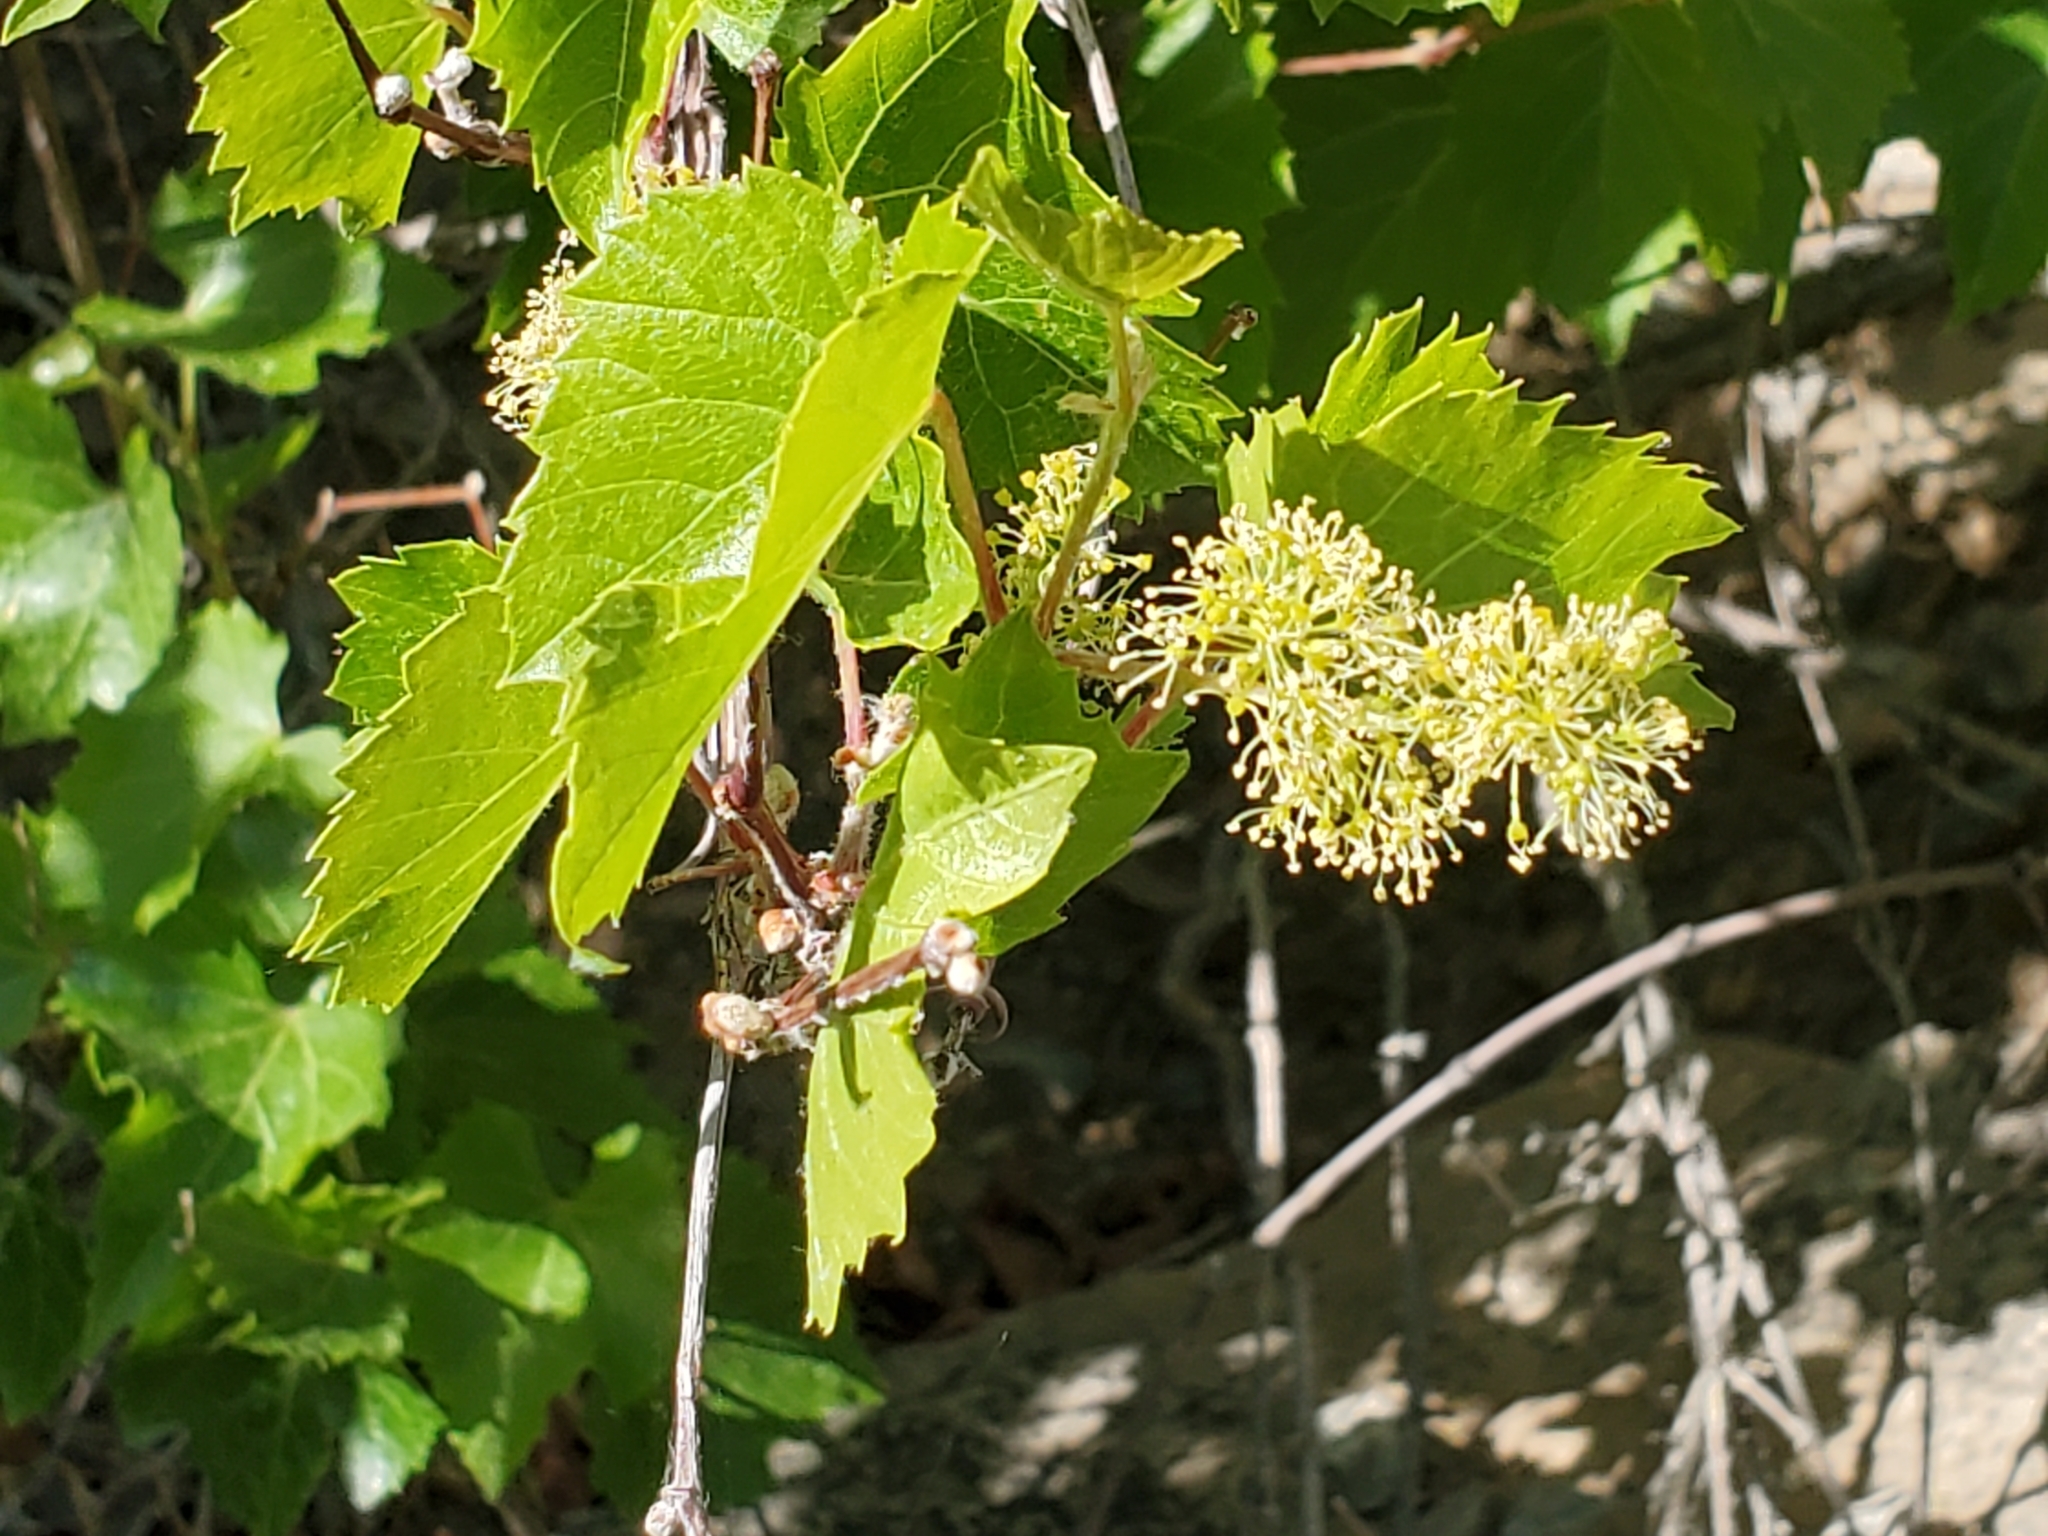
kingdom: Plantae
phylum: Tracheophyta
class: Magnoliopsida
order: Vitales
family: Vitaceae
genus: Vitis
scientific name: Vitis arizonica
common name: Canyon grape
